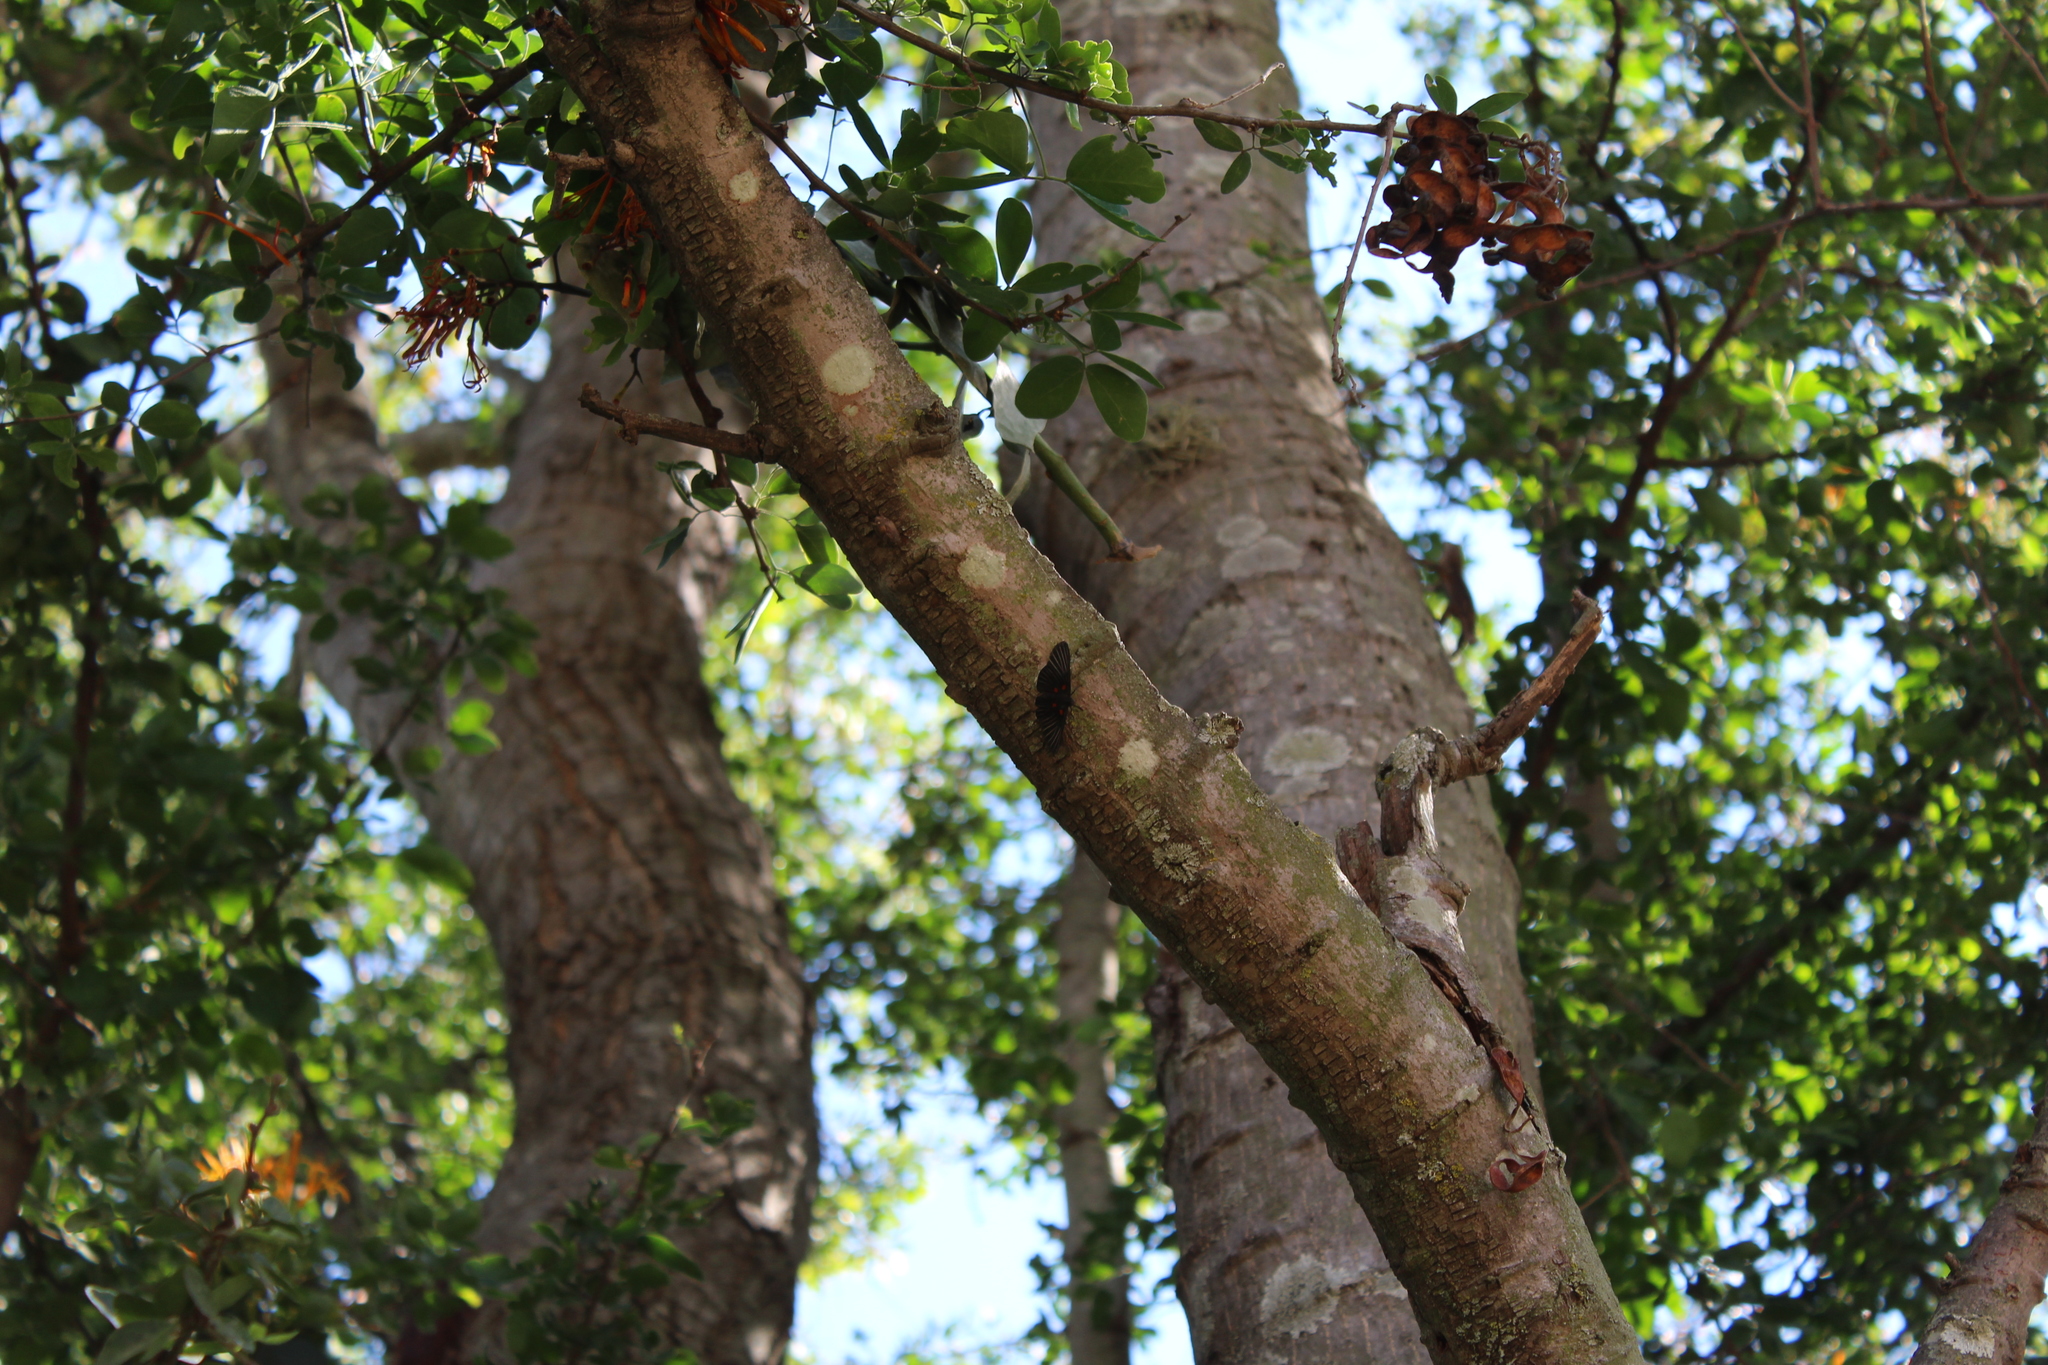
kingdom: Animalia
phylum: Arthropoda
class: Insecta
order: Lepidoptera
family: Lycaenidae
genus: Melanis
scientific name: Melanis
